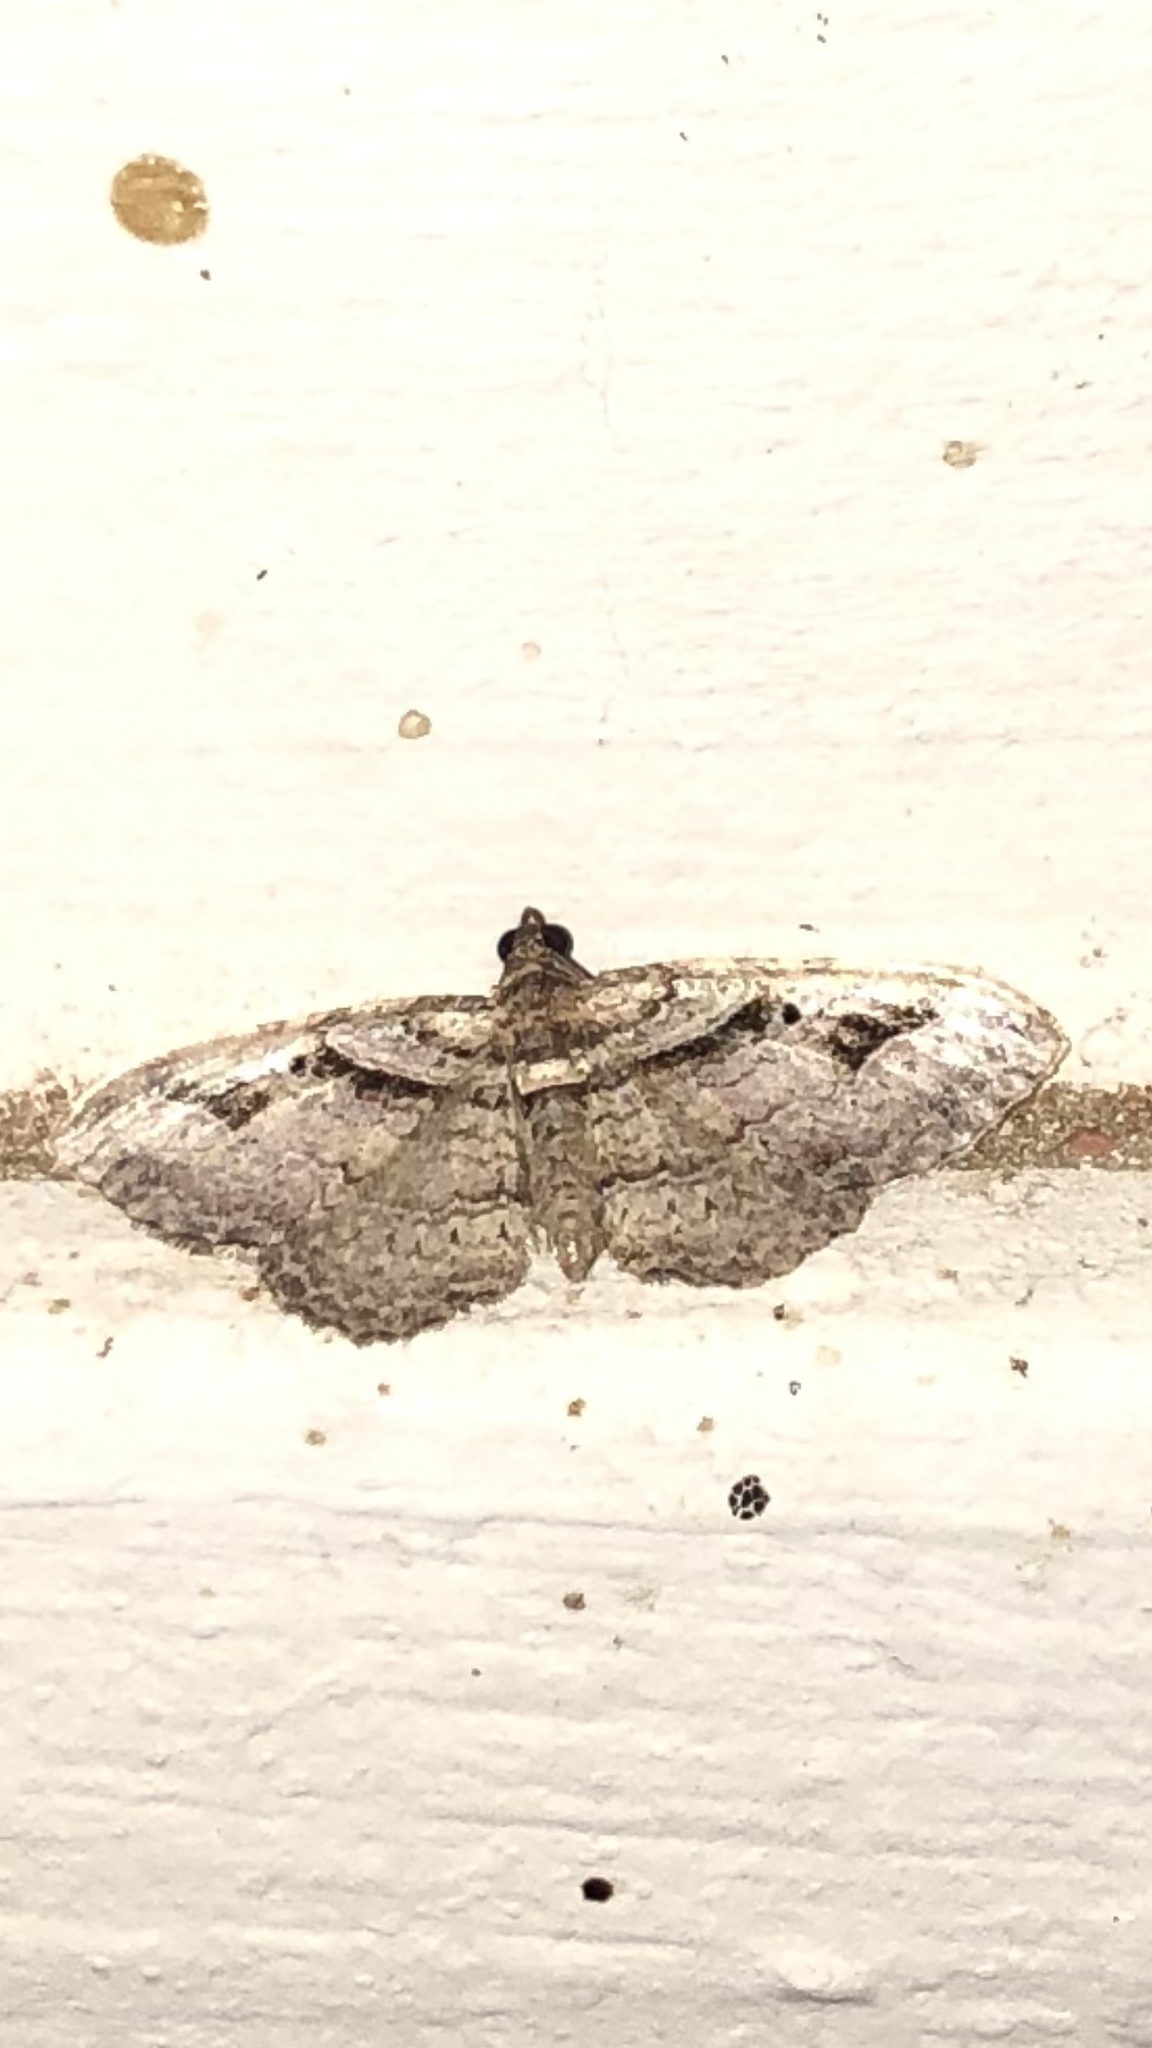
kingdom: Animalia
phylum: Arthropoda
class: Insecta
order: Lepidoptera
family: Geometridae
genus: Costaconvexa
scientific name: Costaconvexa centrostrigaria
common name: Bent-line carpet
